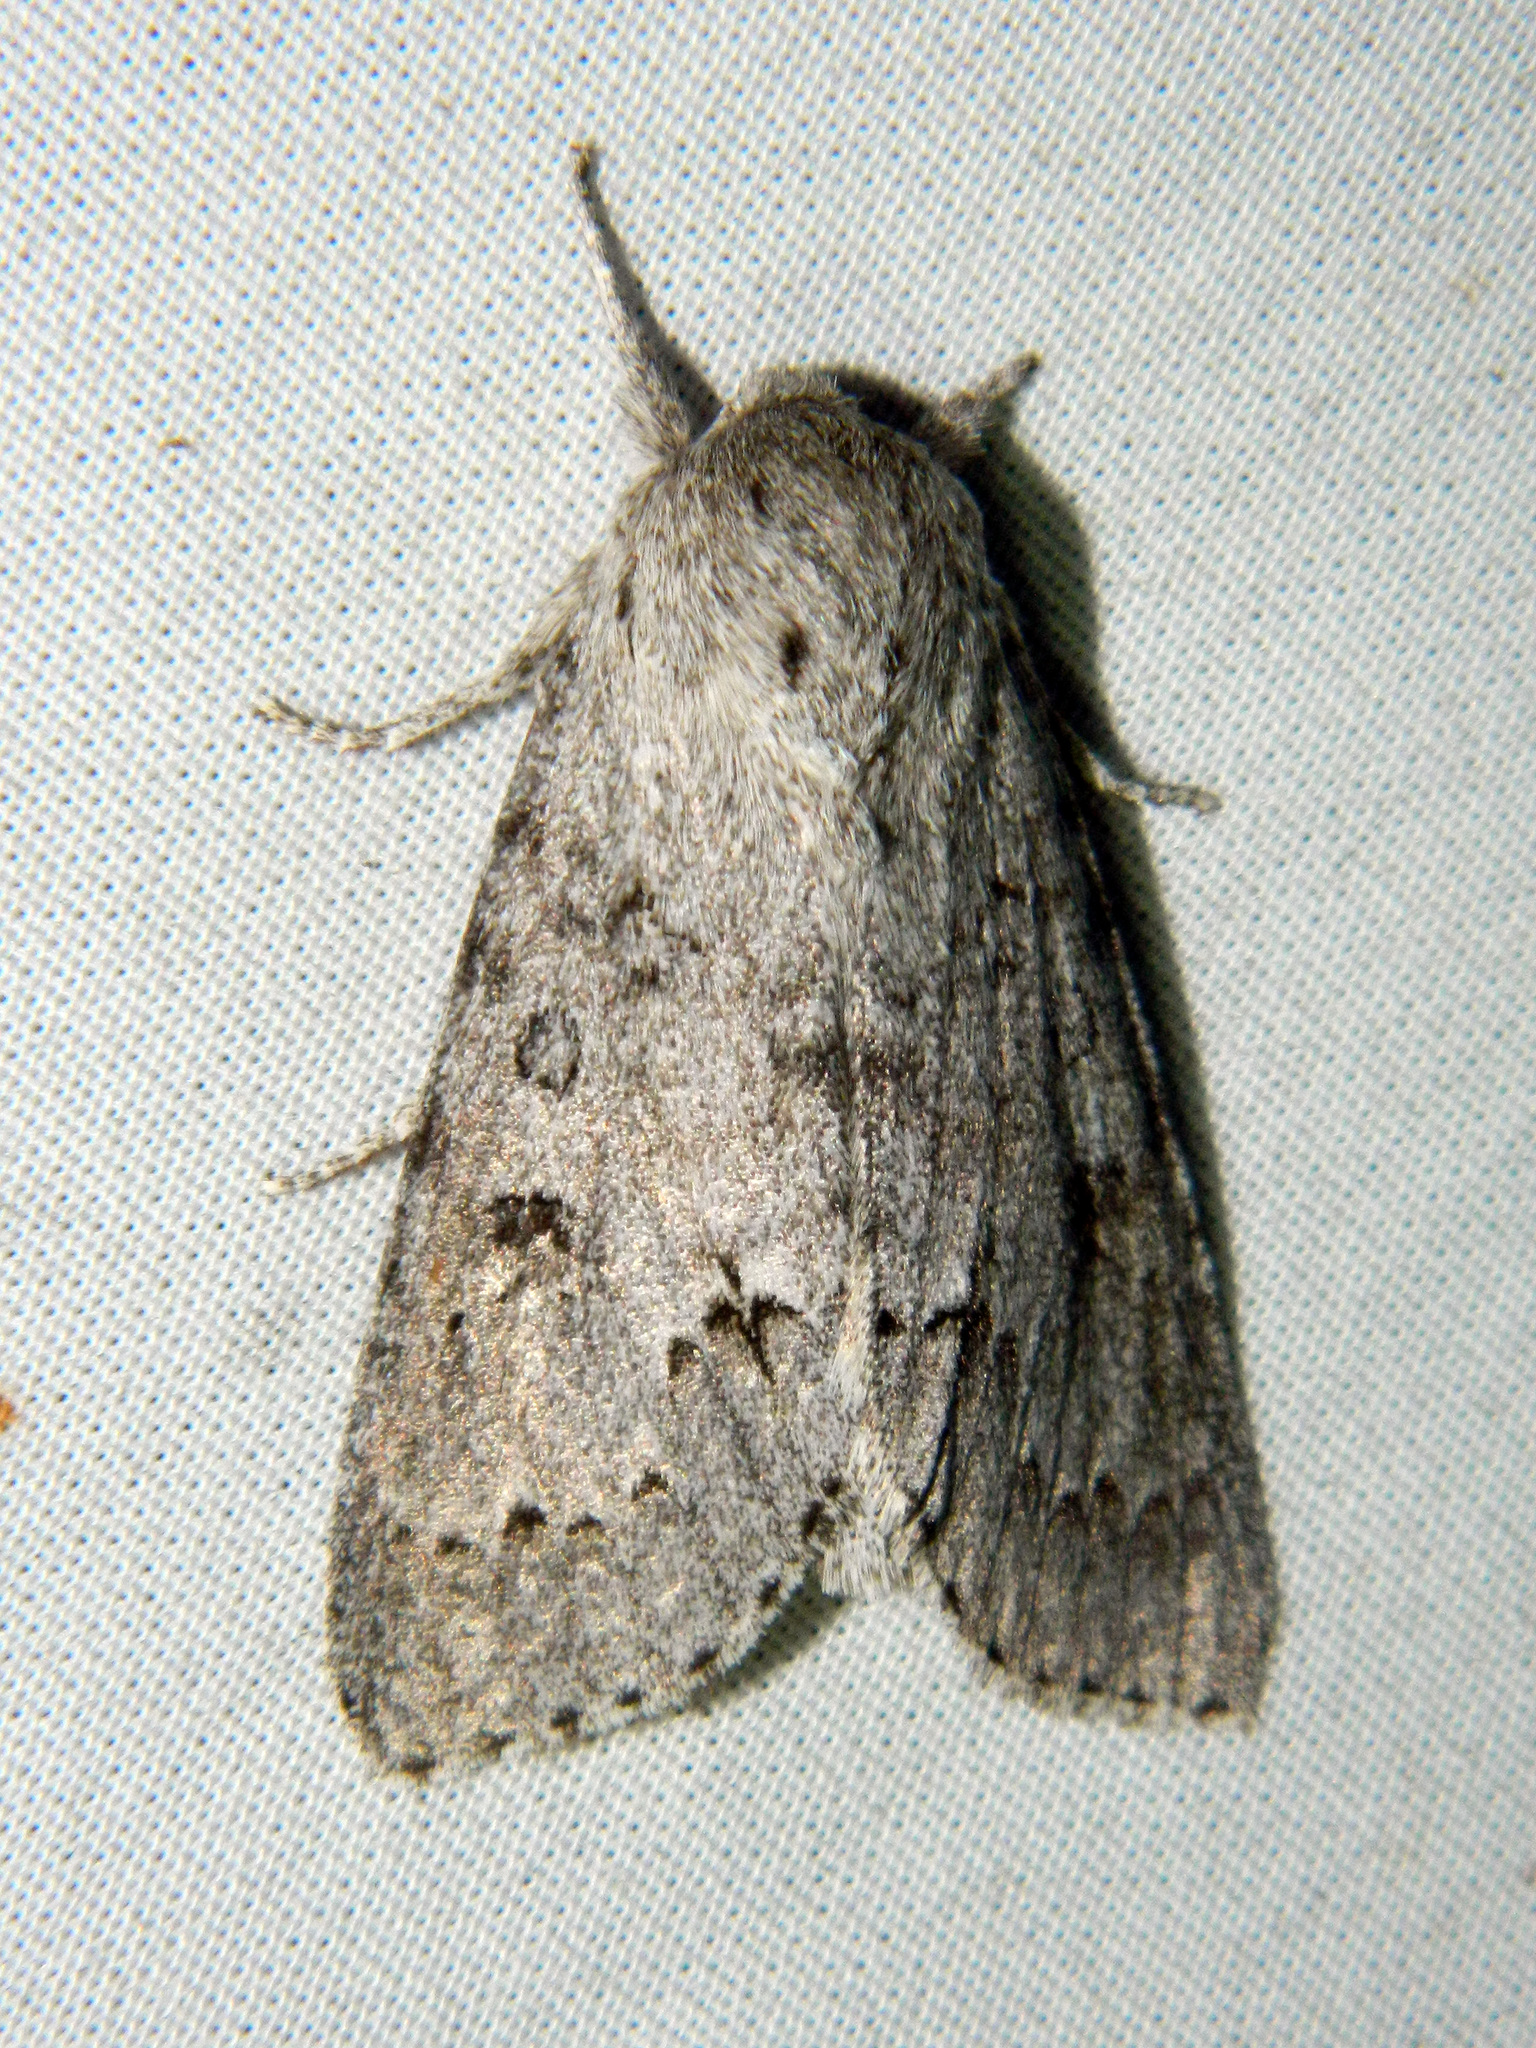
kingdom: Animalia
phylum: Arthropoda
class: Insecta
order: Lepidoptera
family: Noctuidae
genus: Acronicta
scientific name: Acronicta insita
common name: Large gray dagger
